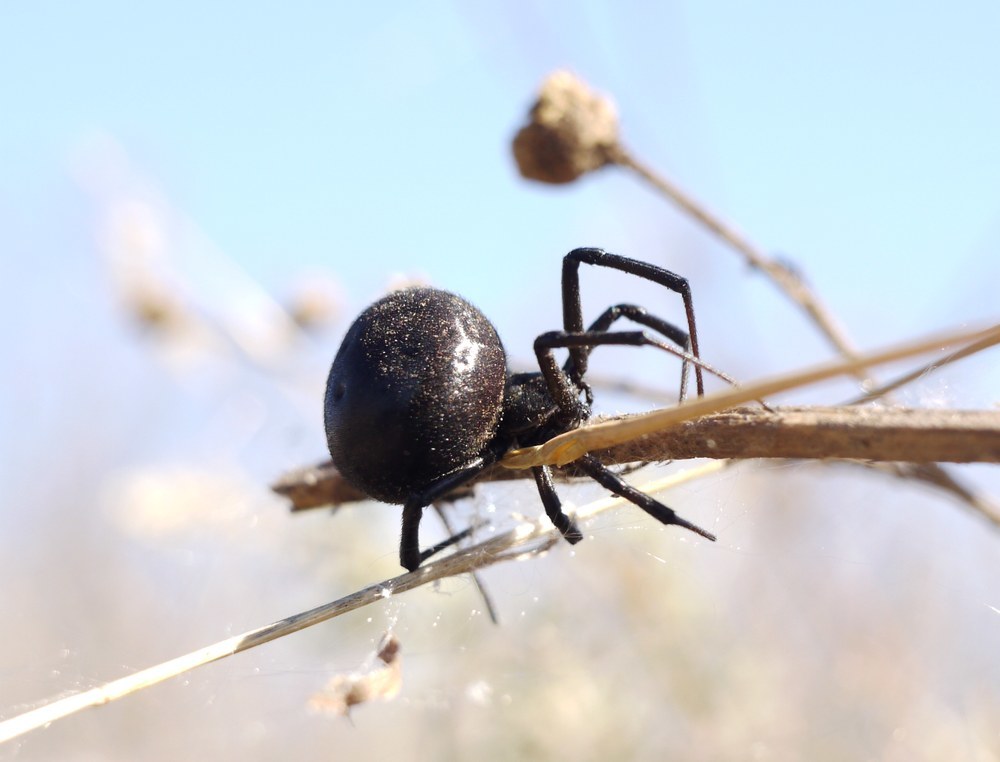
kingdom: Animalia
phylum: Arthropoda
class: Arachnida
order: Araneae
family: Theridiidae
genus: Latrodectus
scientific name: Latrodectus tredecimguttatus
